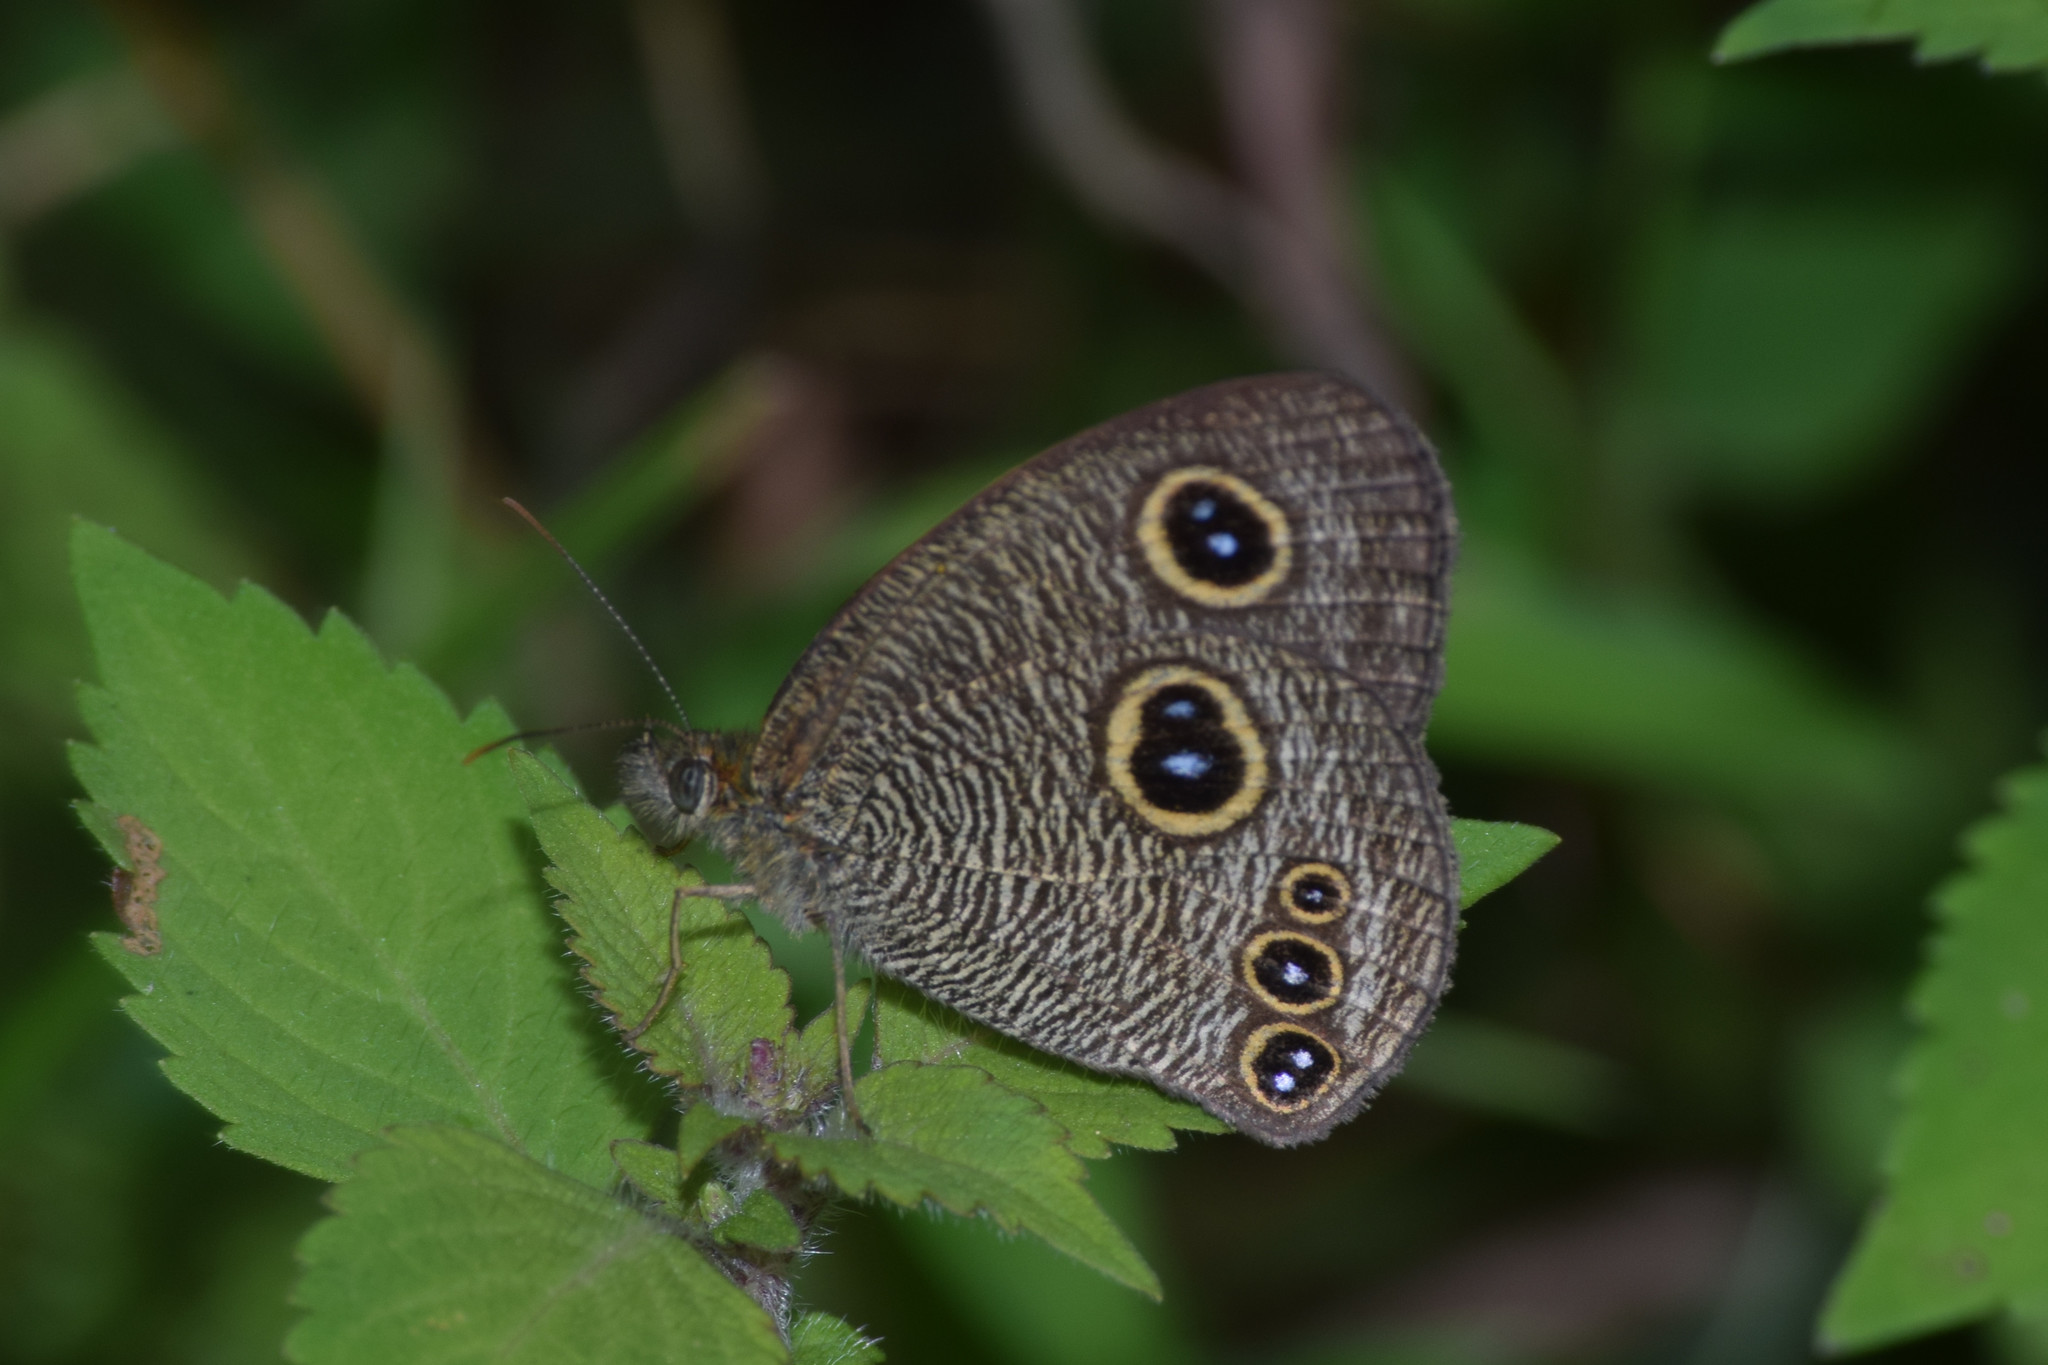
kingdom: Animalia
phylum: Arthropoda
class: Insecta
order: Lepidoptera
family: Nymphalidae
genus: Ypthima
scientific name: Ypthima nikaea
